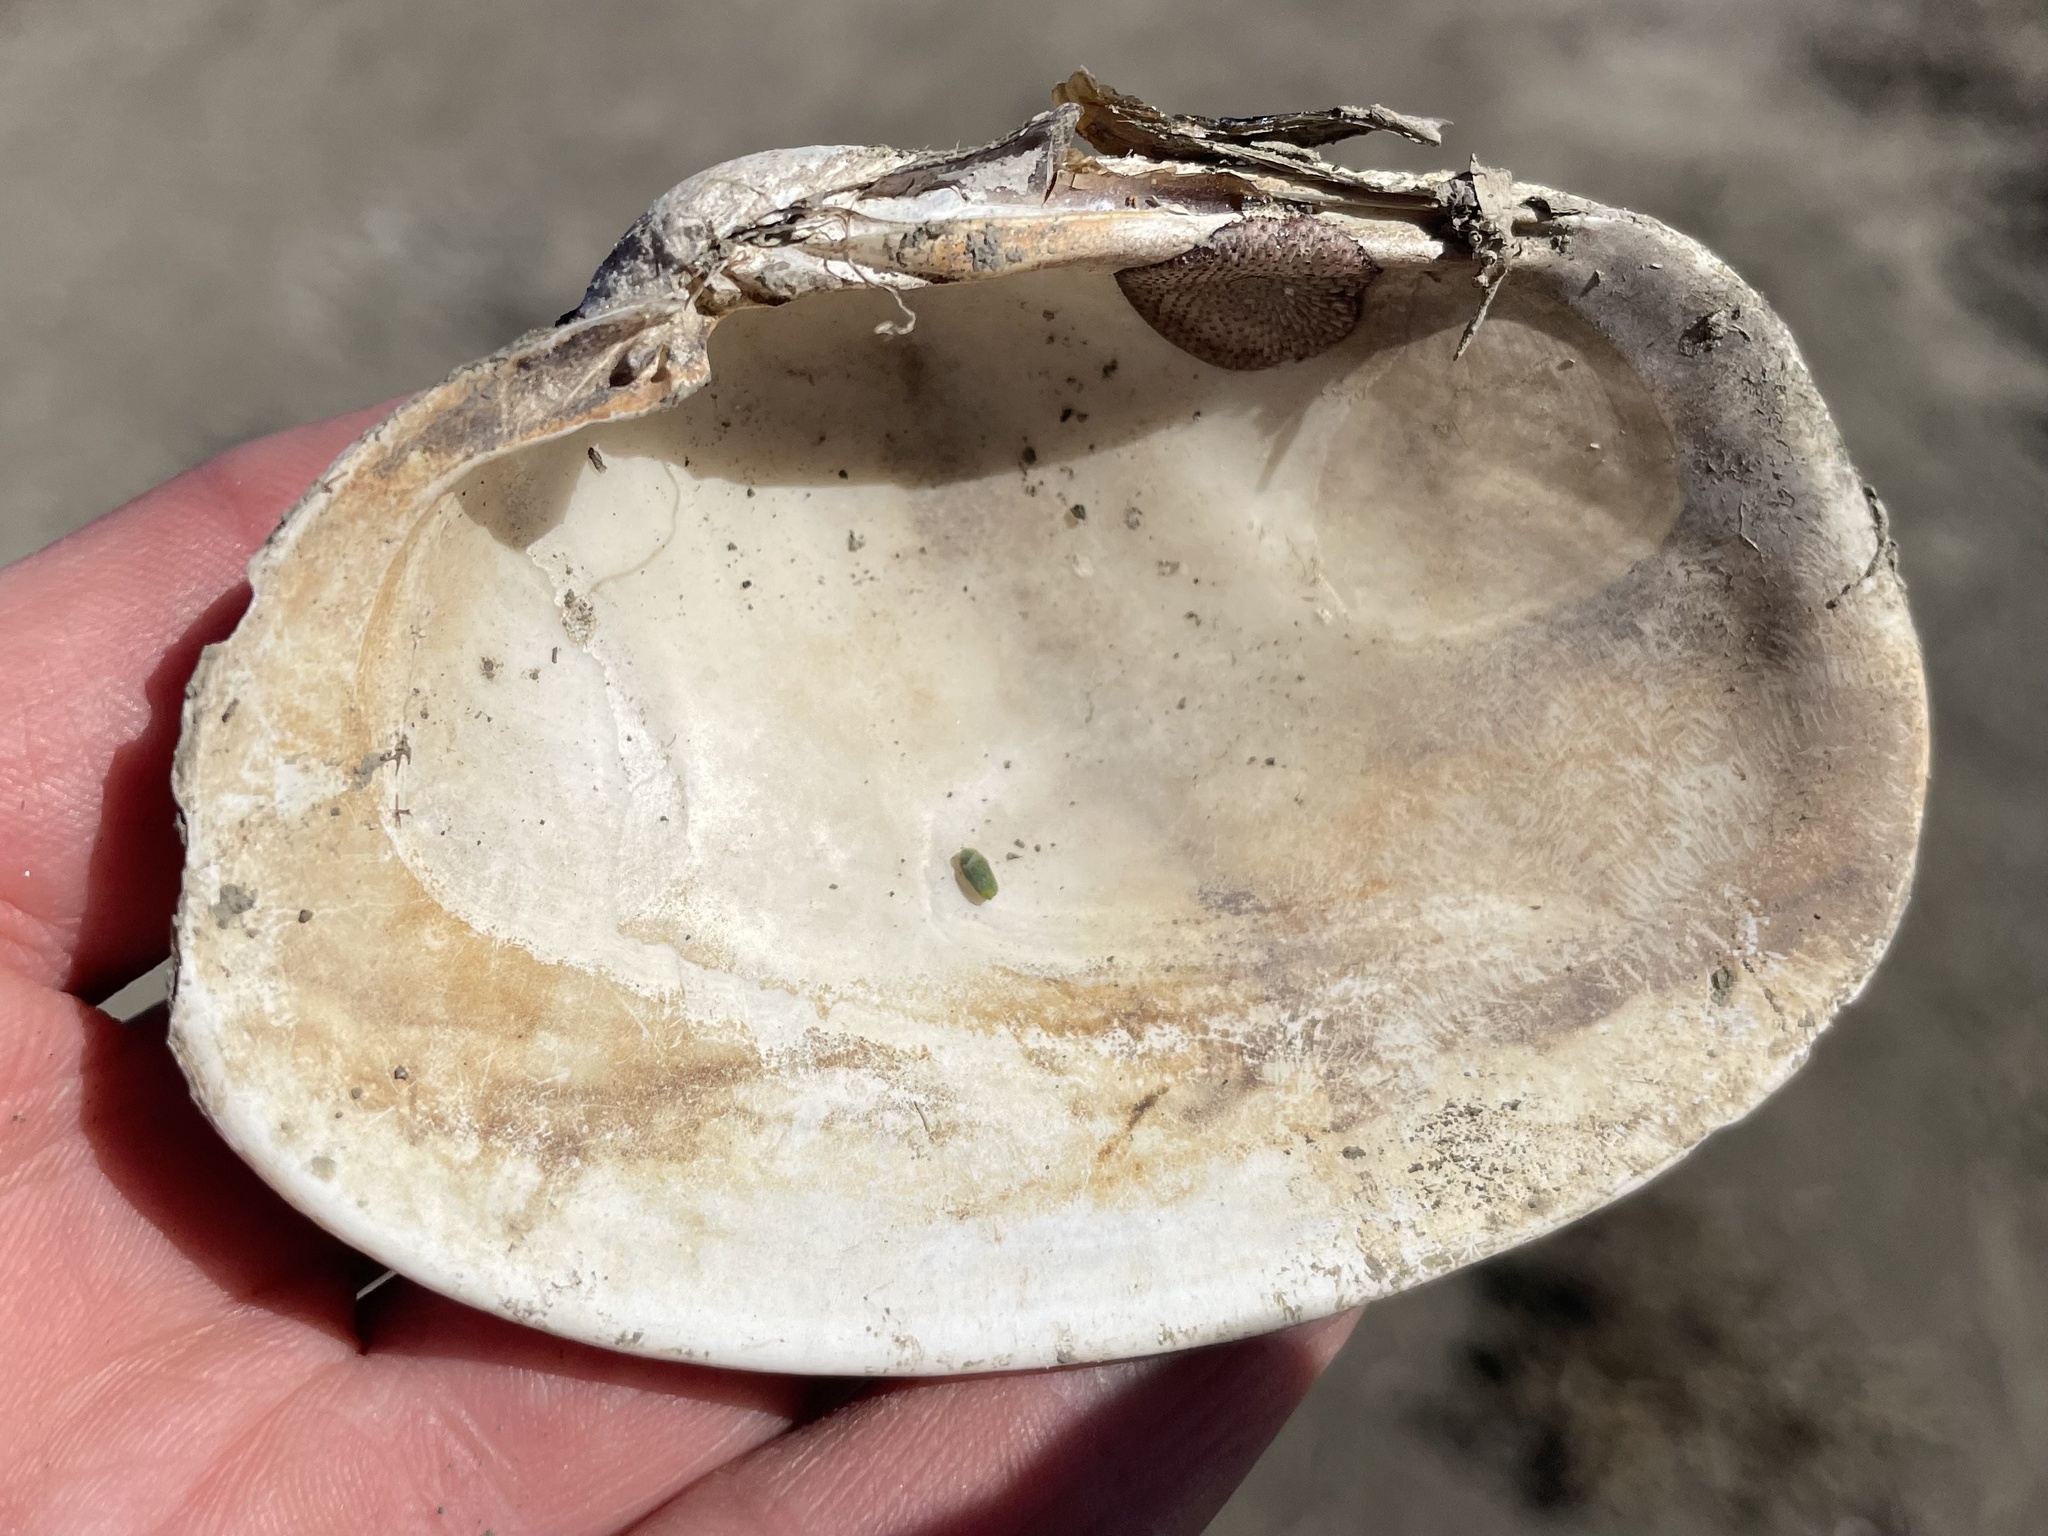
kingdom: Animalia
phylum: Mollusca
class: Bivalvia
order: Venerida
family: Veneridae
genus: Saxidomus
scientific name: Saxidomus nuttalli
